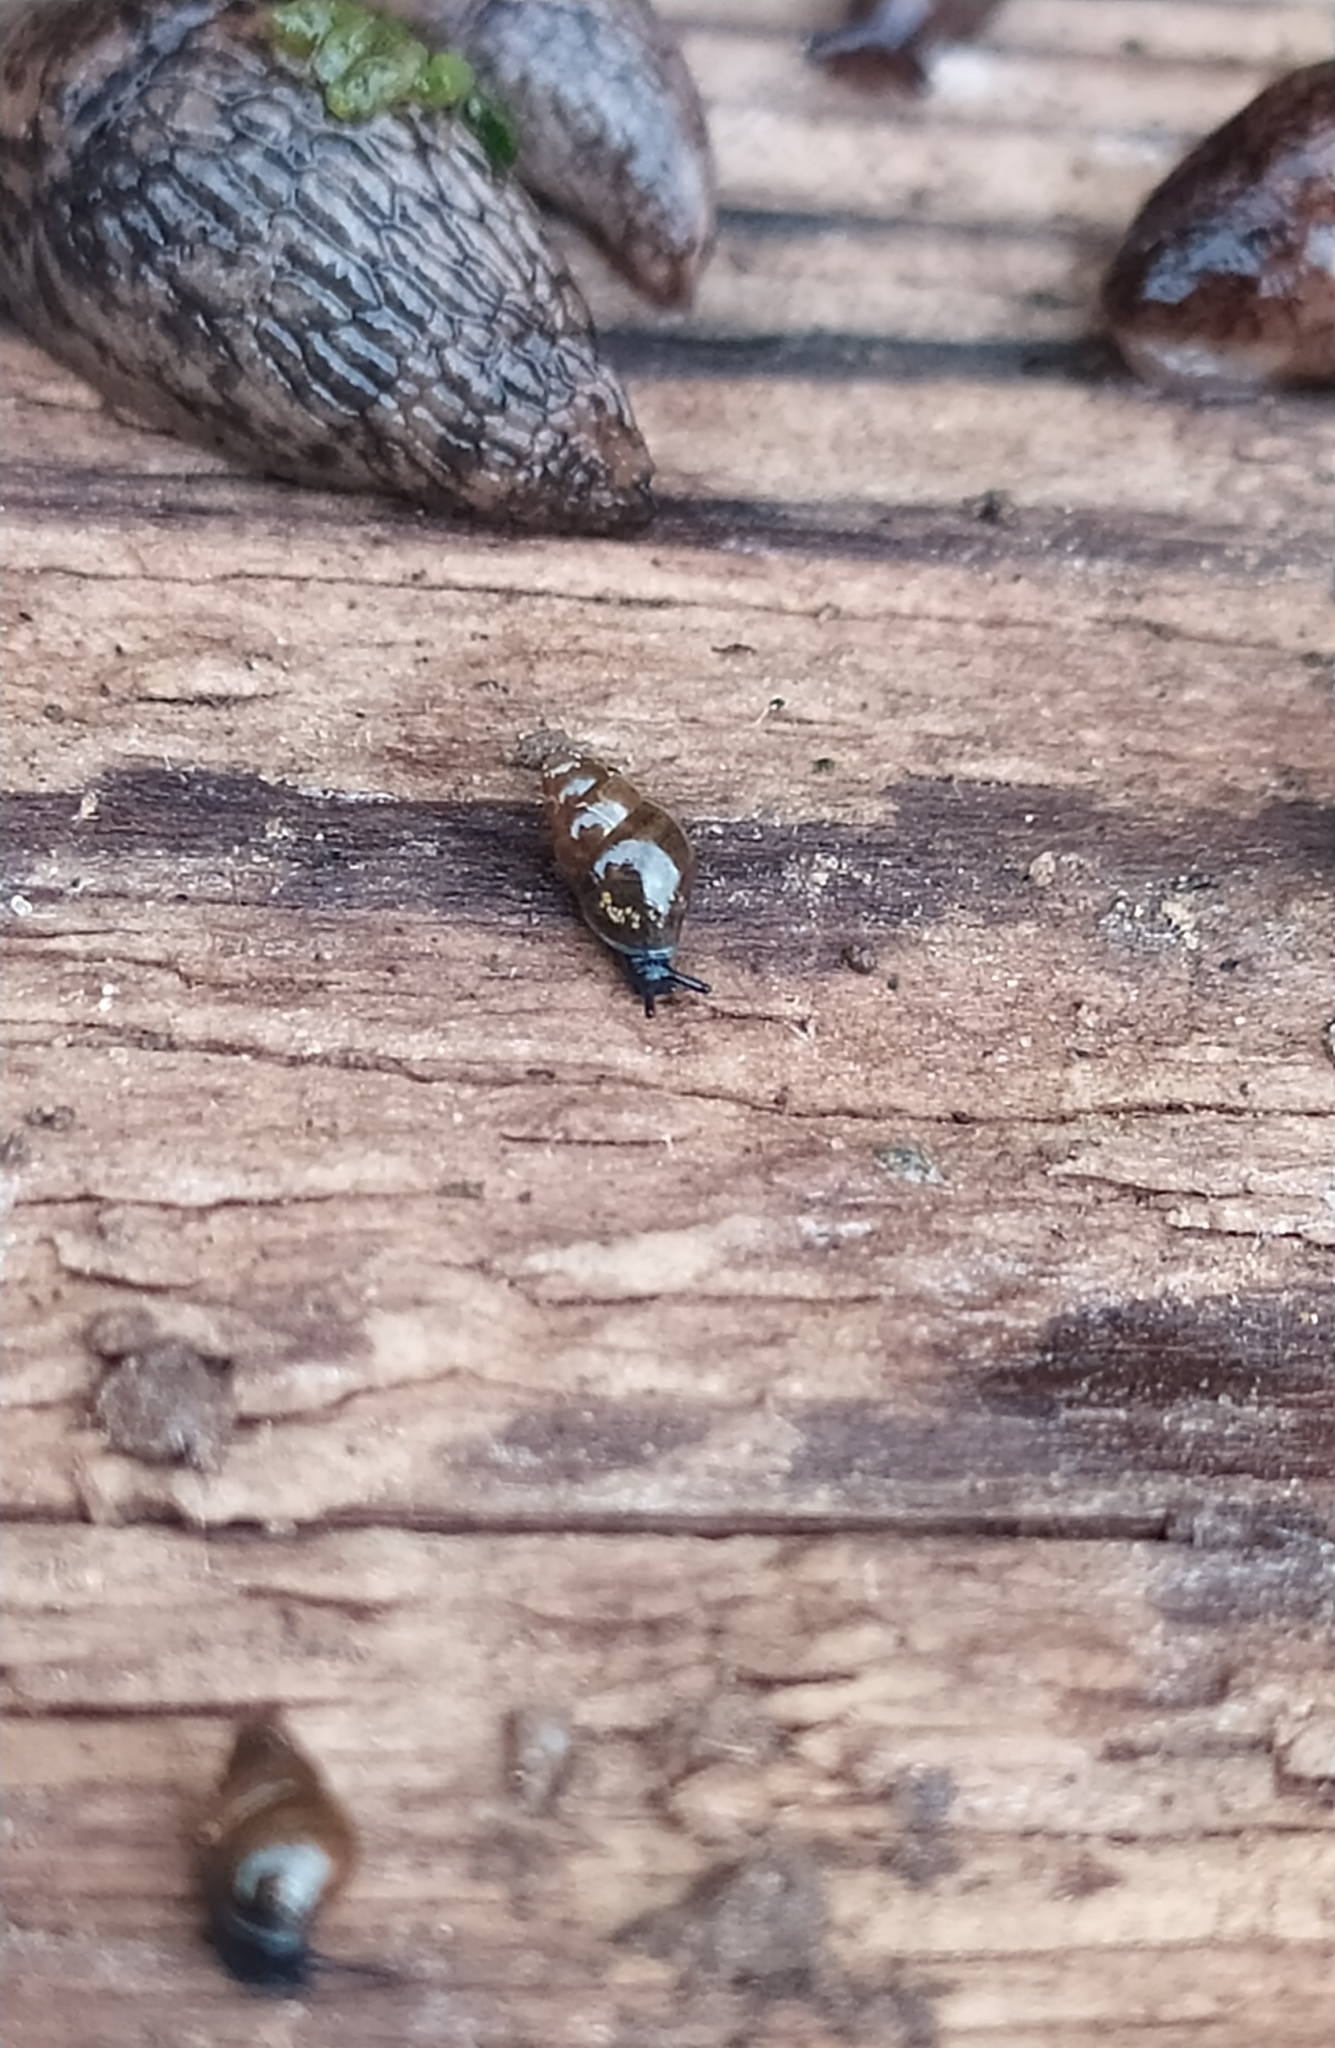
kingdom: Animalia
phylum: Mollusca
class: Gastropoda
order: Stylommatophora
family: Cochlicopidae
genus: Cochlicopa
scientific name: Cochlicopa lubrica
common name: Glossy pillar snail
